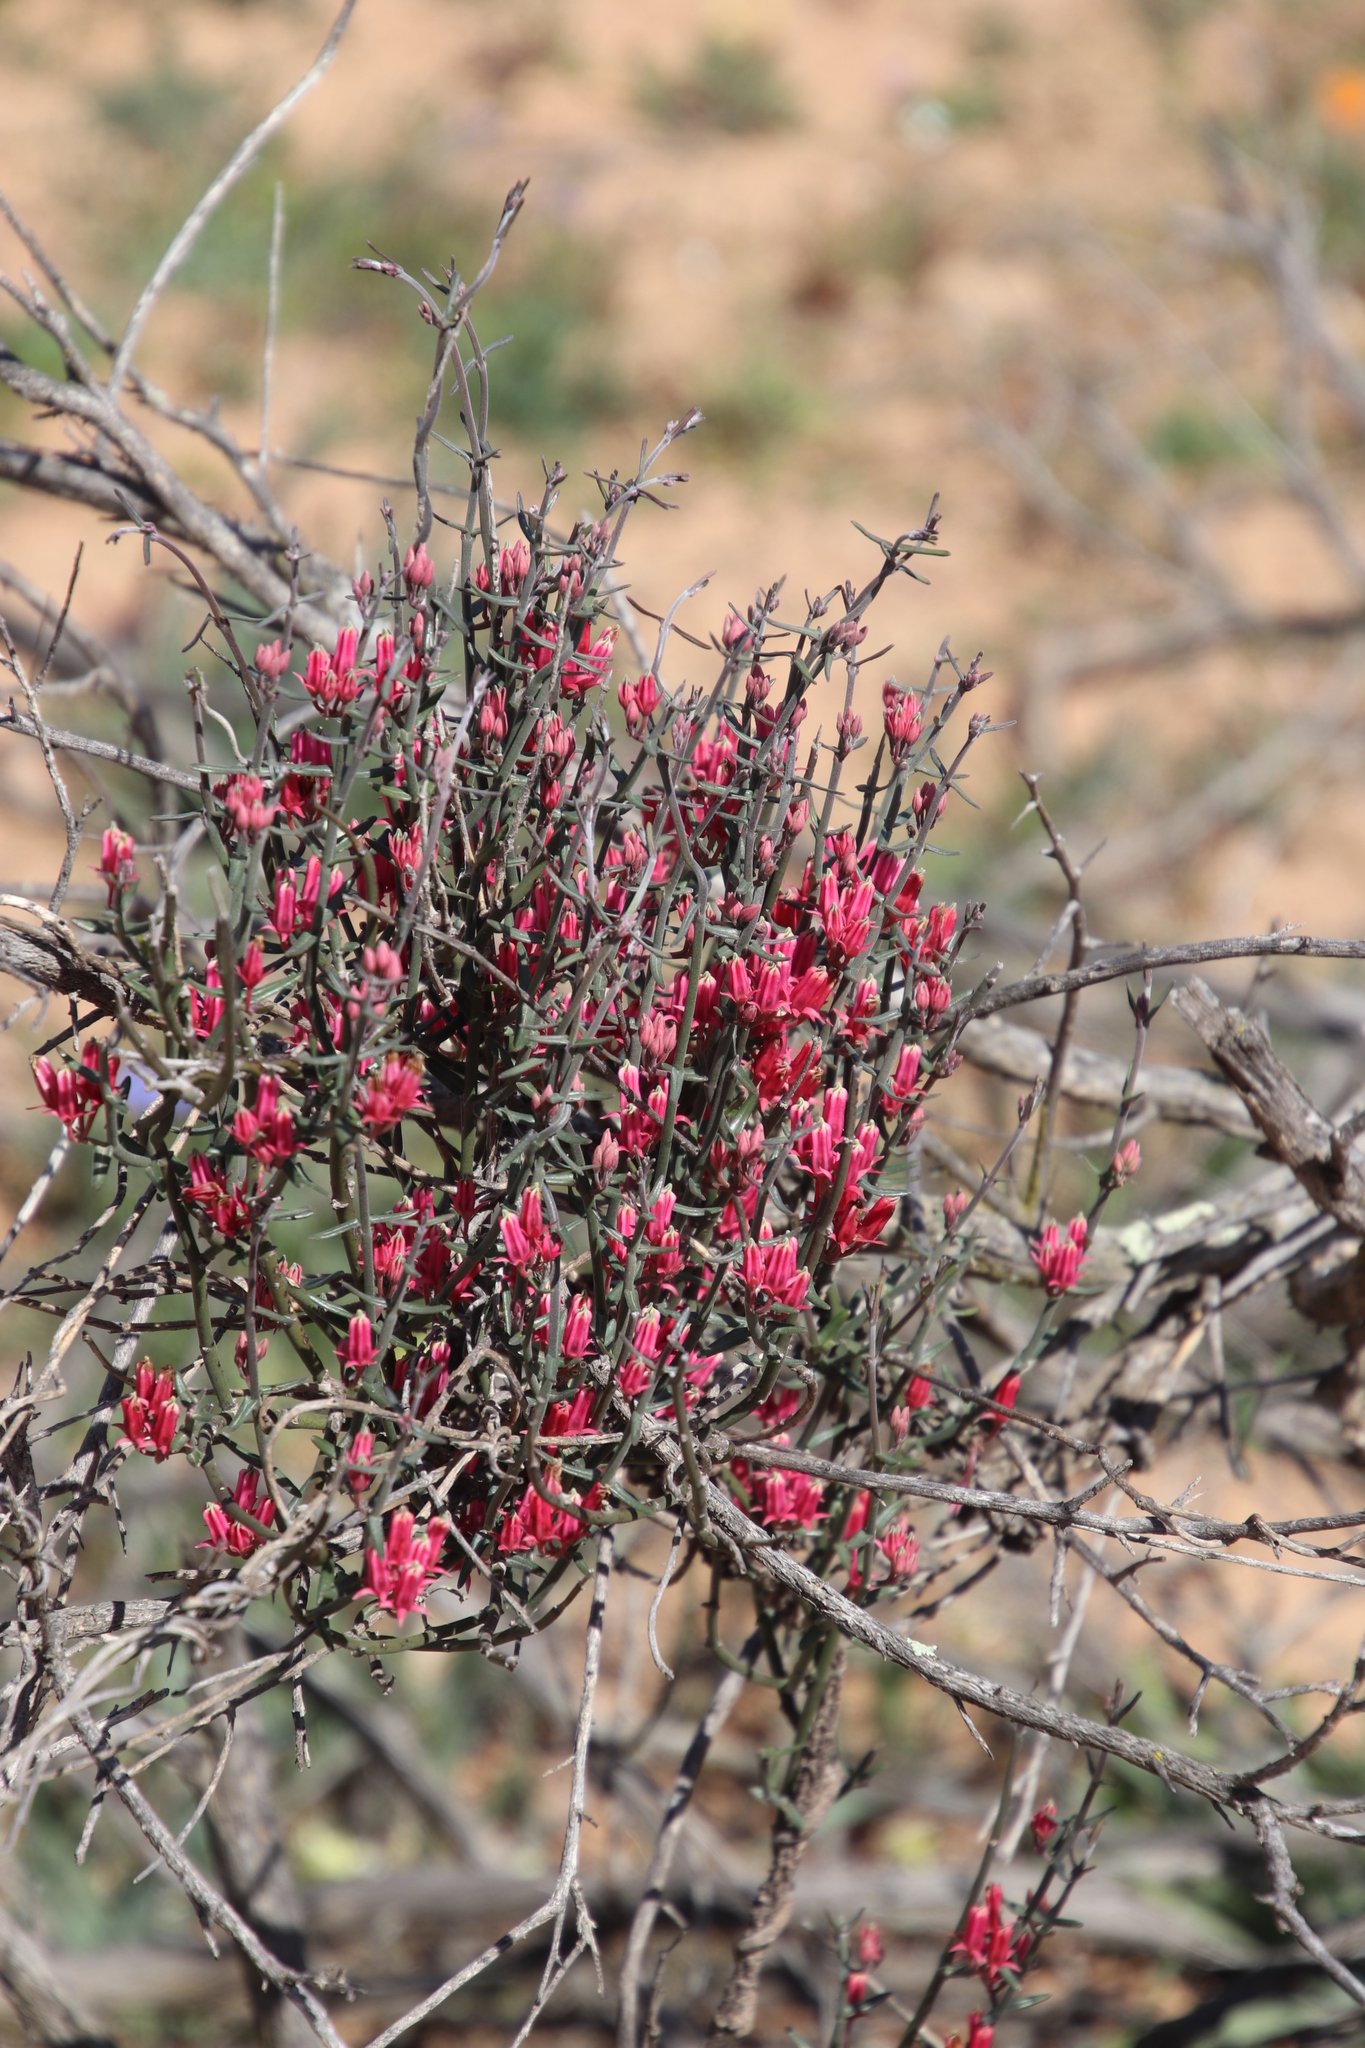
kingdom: Plantae
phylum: Tracheophyta
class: Magnoliopsida
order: Gentianales
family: Apocynaceae
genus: Microloma
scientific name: Microloma sagittatum
